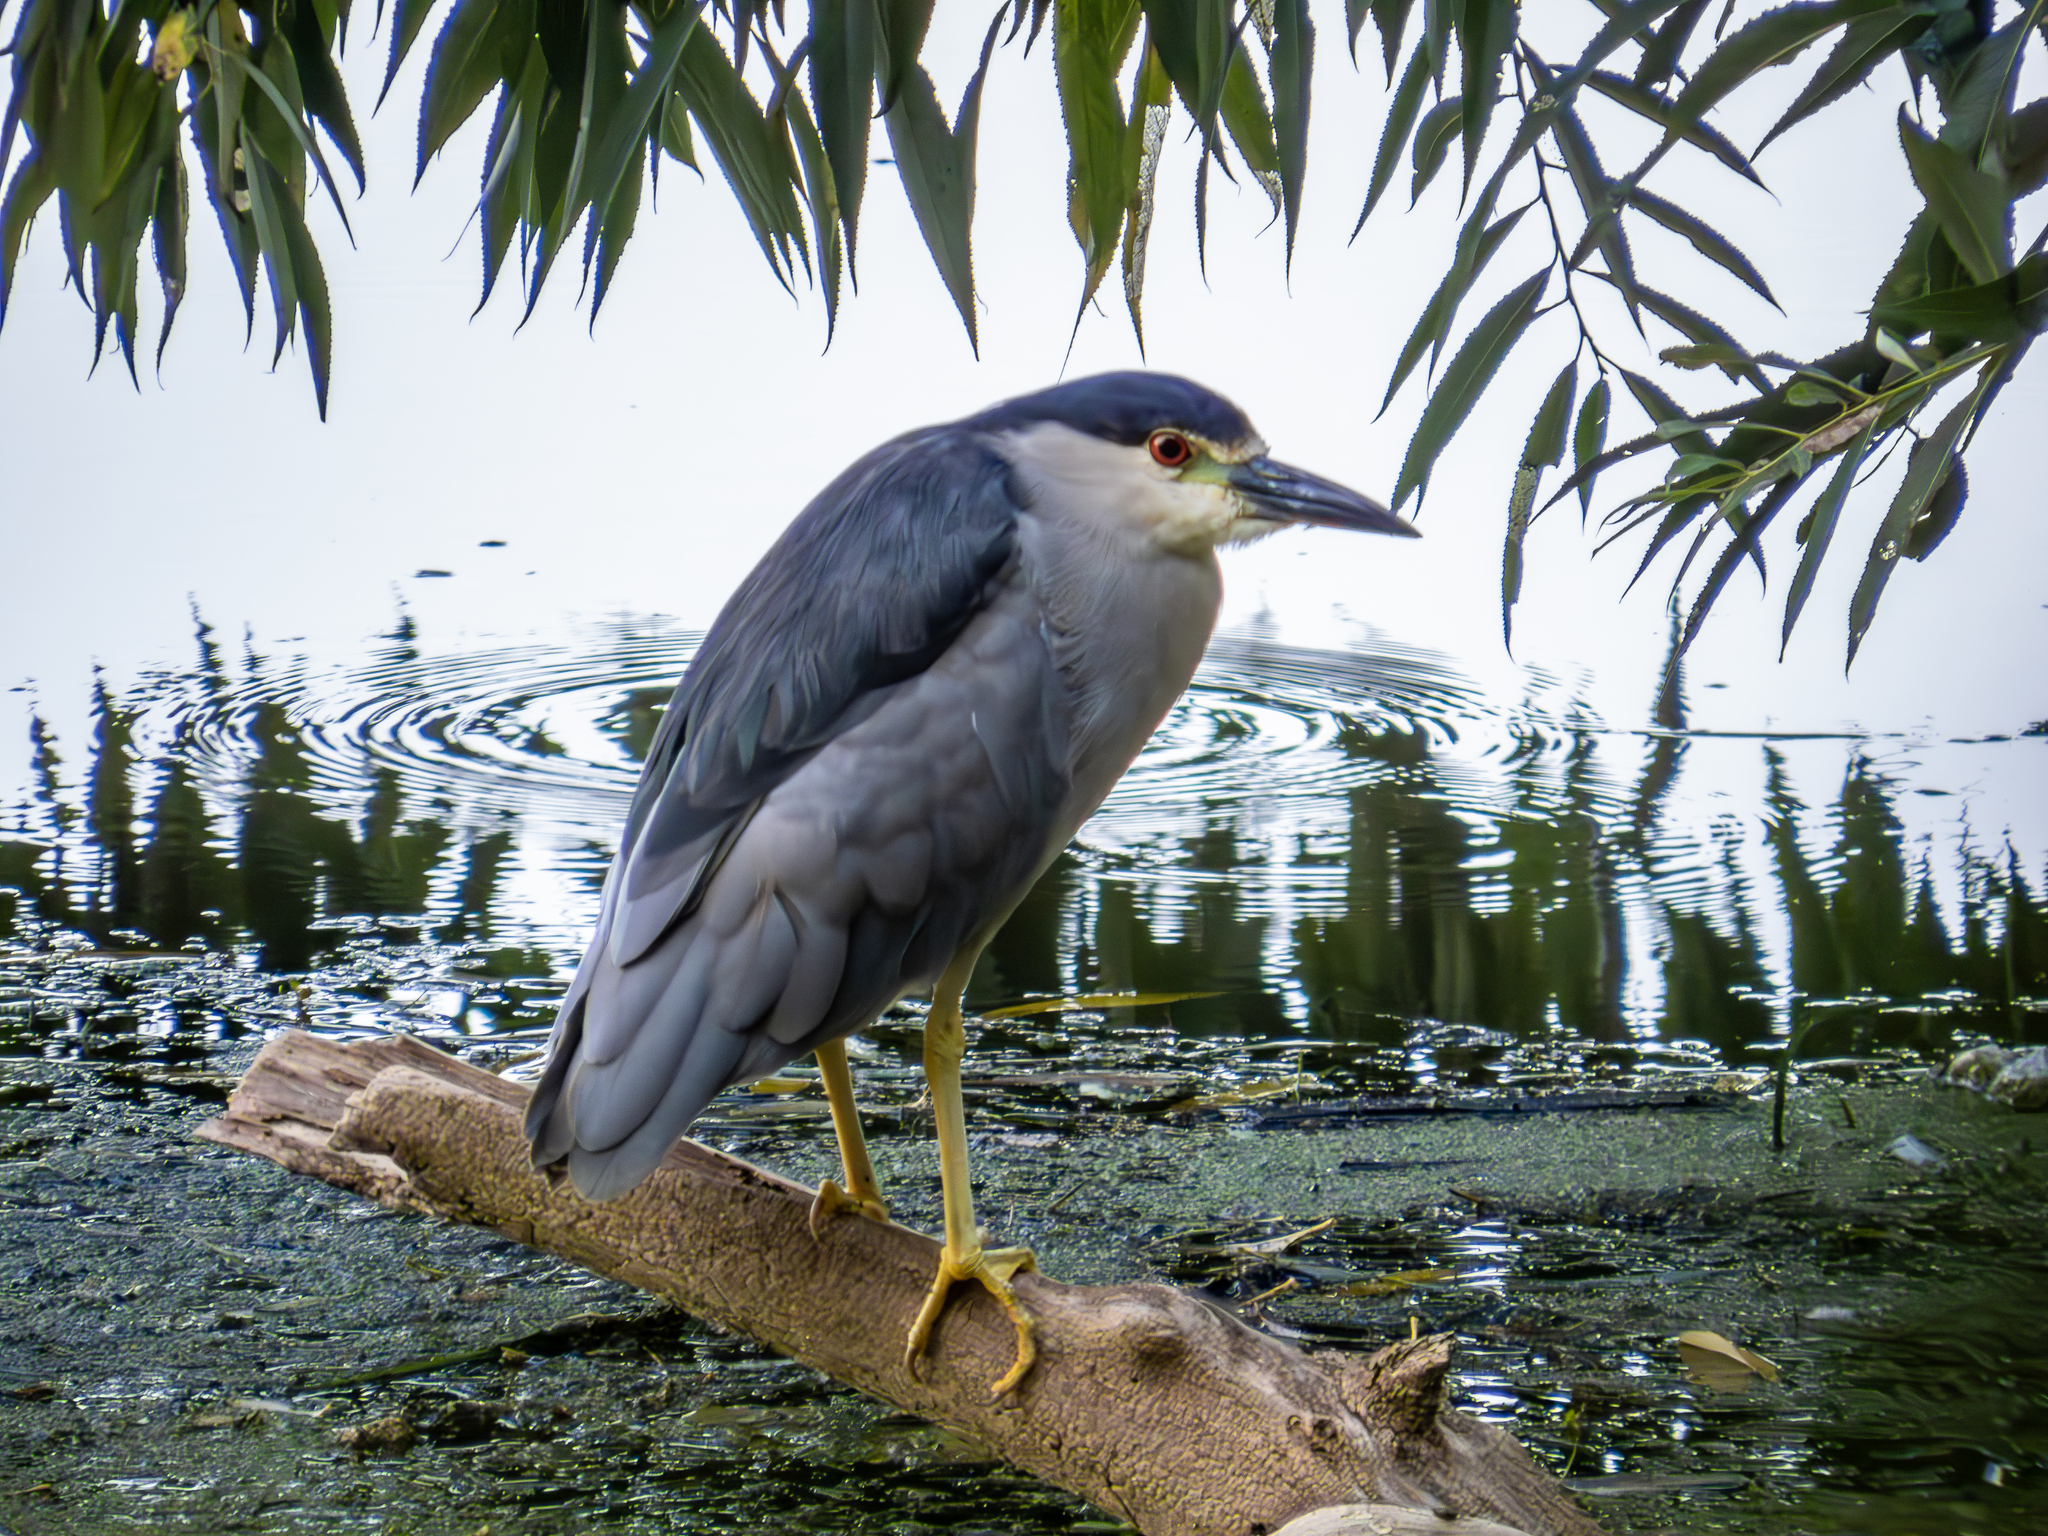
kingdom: Animalia
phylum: Chordata
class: Aves
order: Pelecaniformes
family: Ardeidae
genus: Nycticorax
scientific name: Nycticorax nycticorax
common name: Black-crowned night heron
